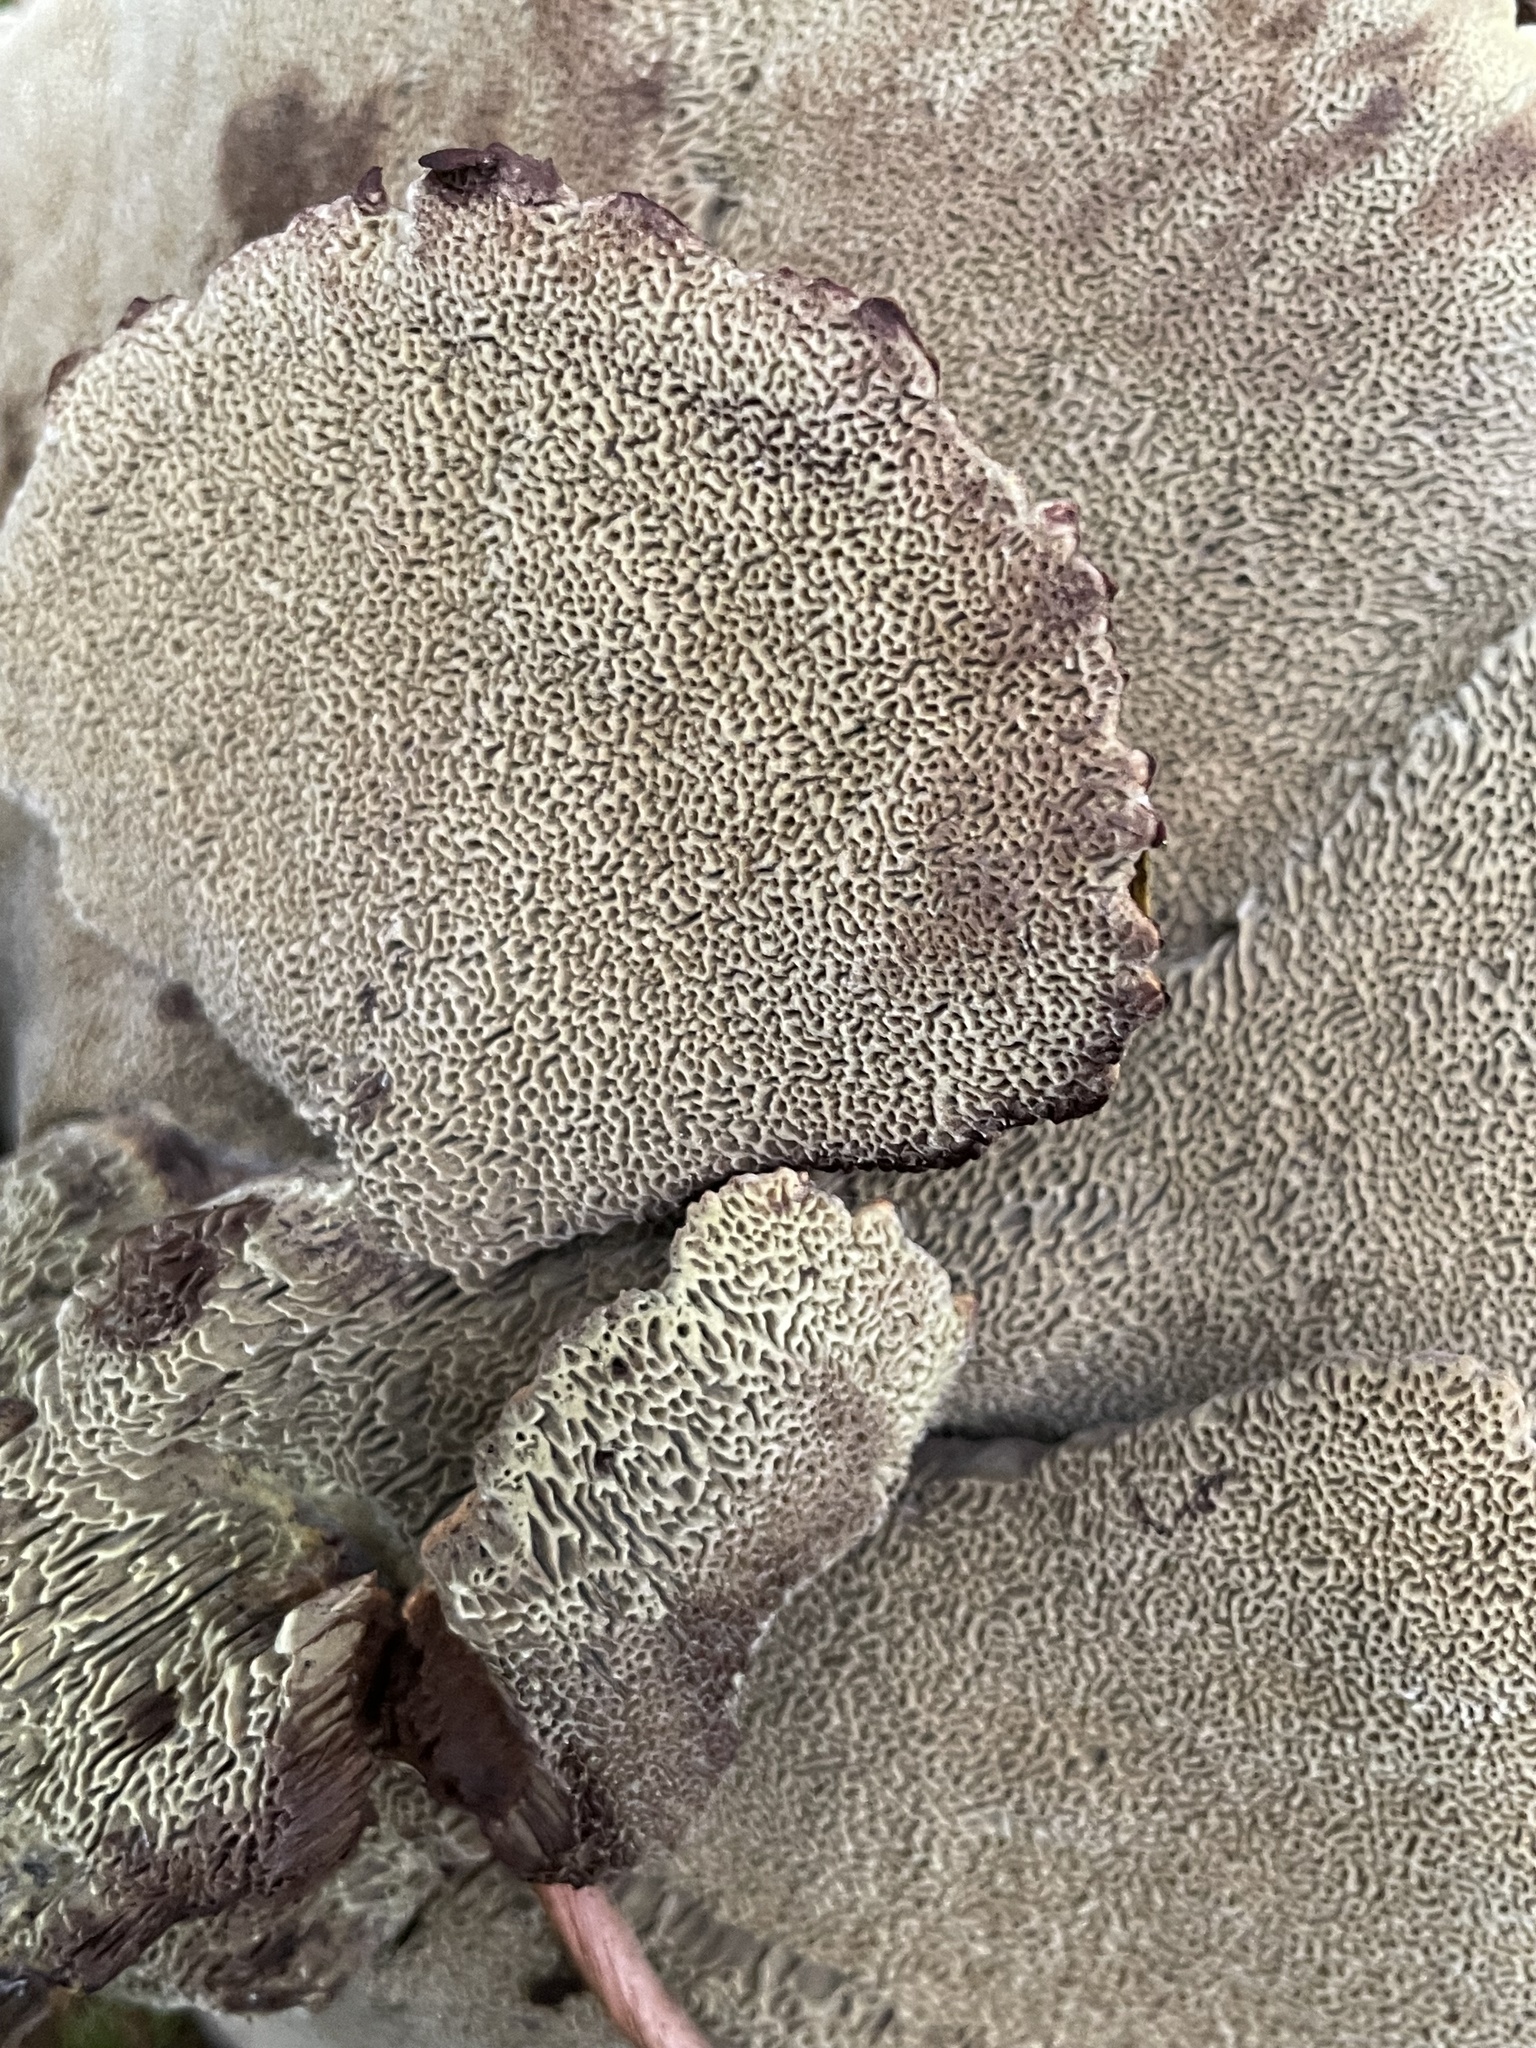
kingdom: Fungi
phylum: Basidiomycota
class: Agaricomycetes
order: Polyporales
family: Laetiporaceae
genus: Phaeolus
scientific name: Phaeolus schweinitzii
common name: Dyer's mazegill
